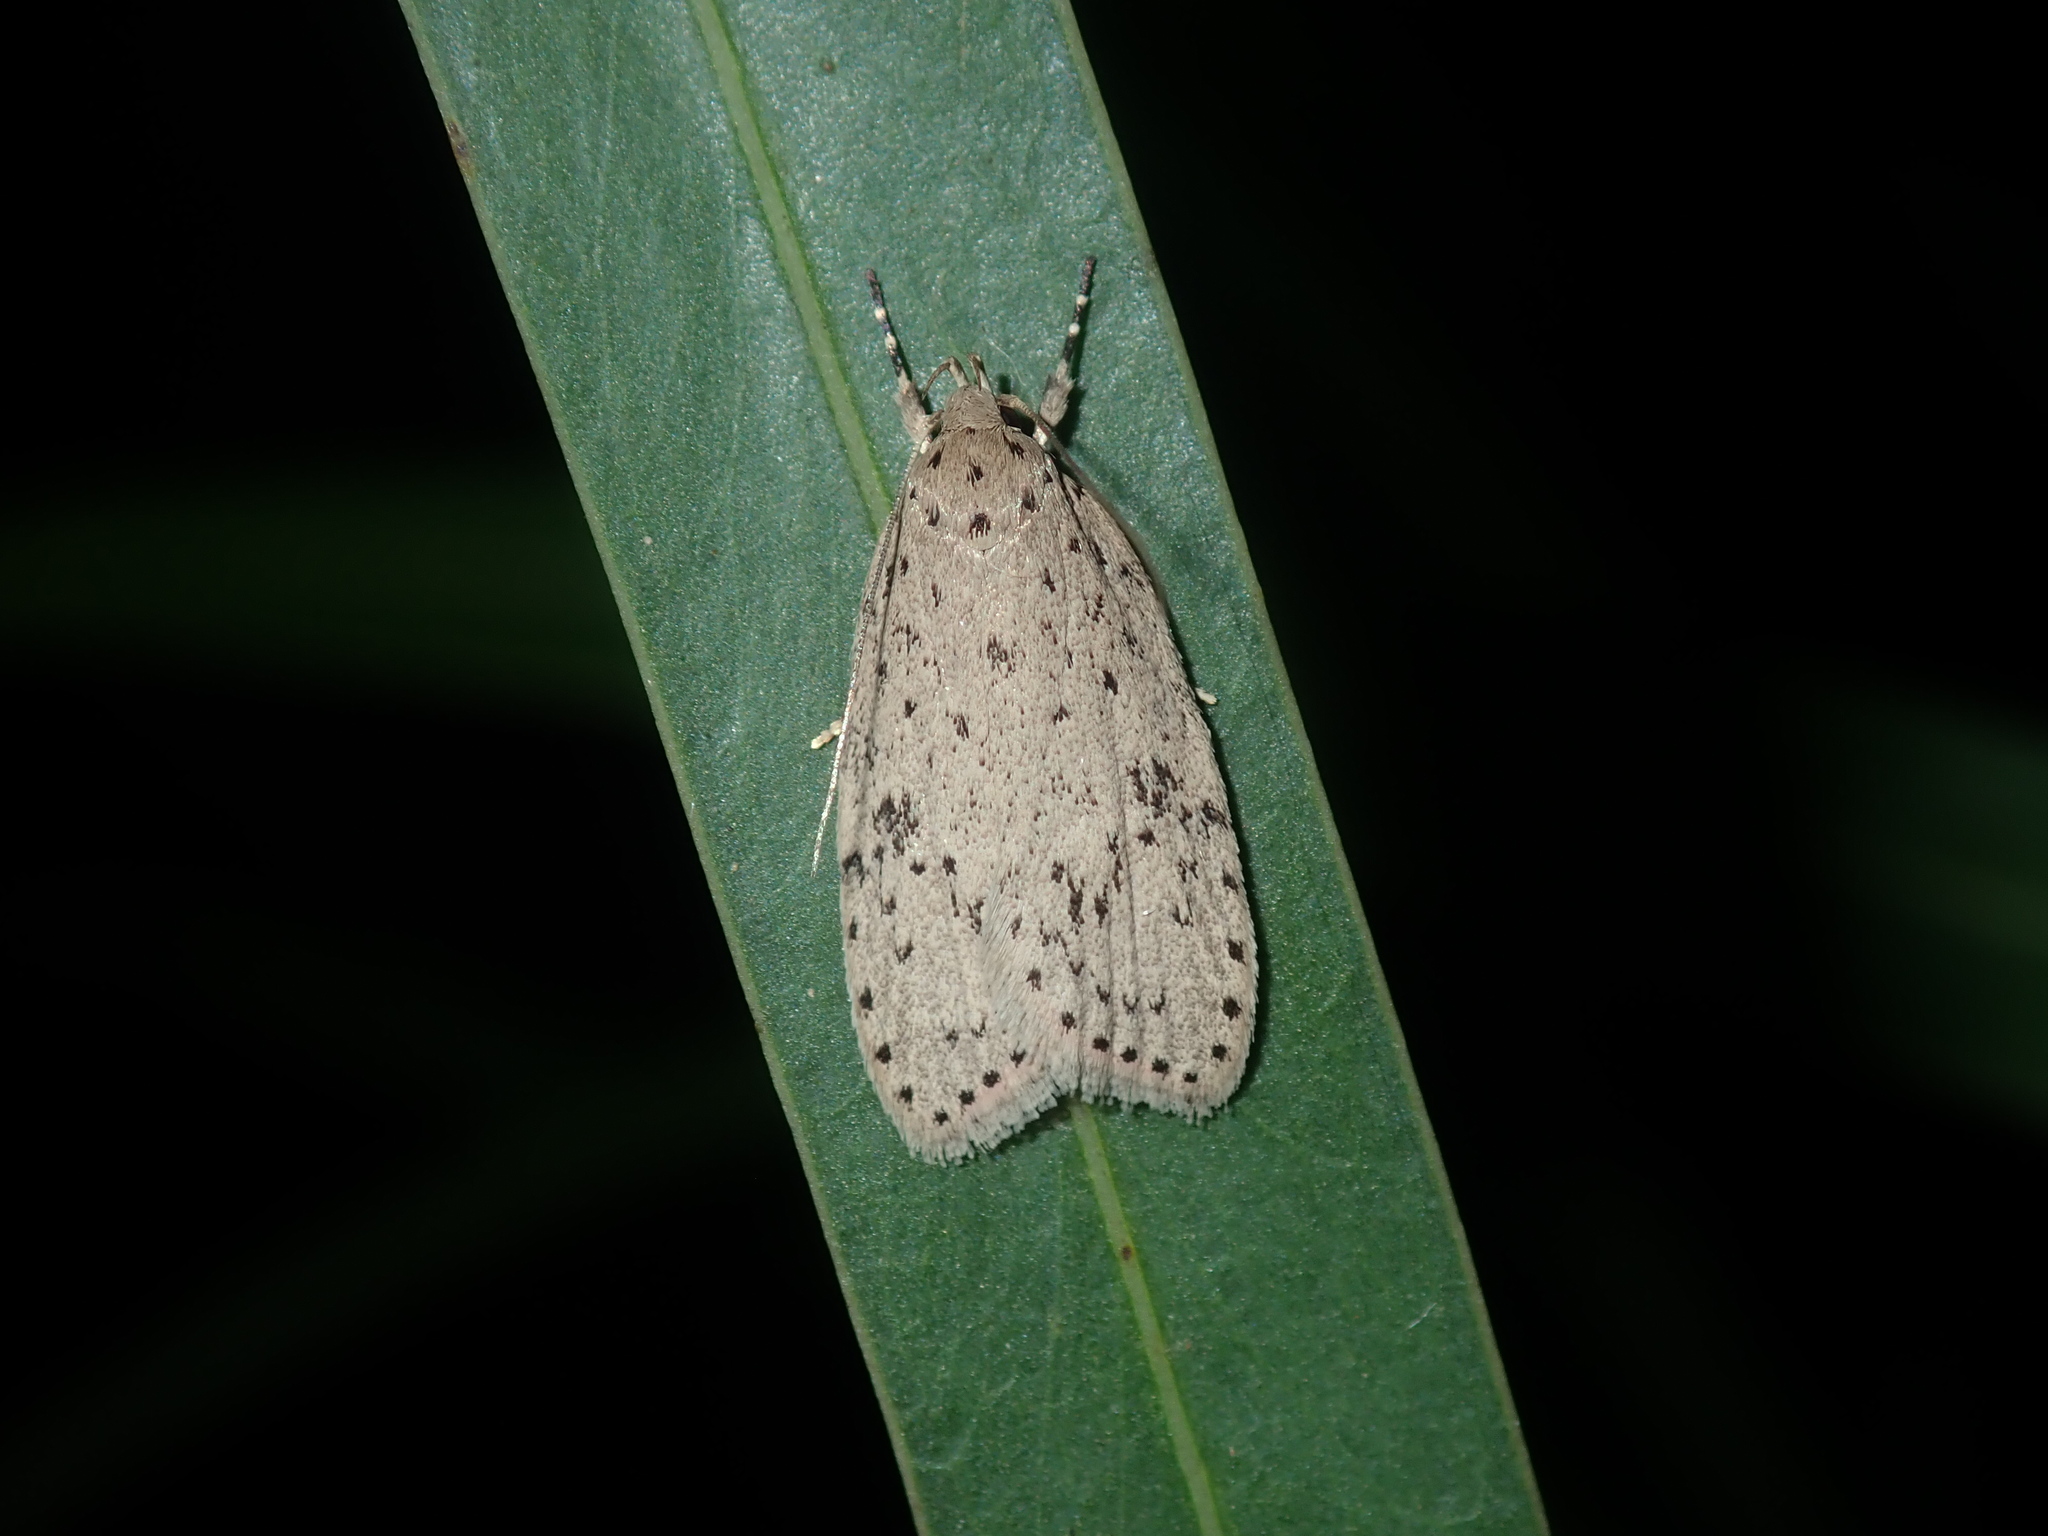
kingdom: Animalia
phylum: Arthropoda
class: Insecta
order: Lepidoptera
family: Oecophoridae
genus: Stictochila
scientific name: Stictochila myriospila
